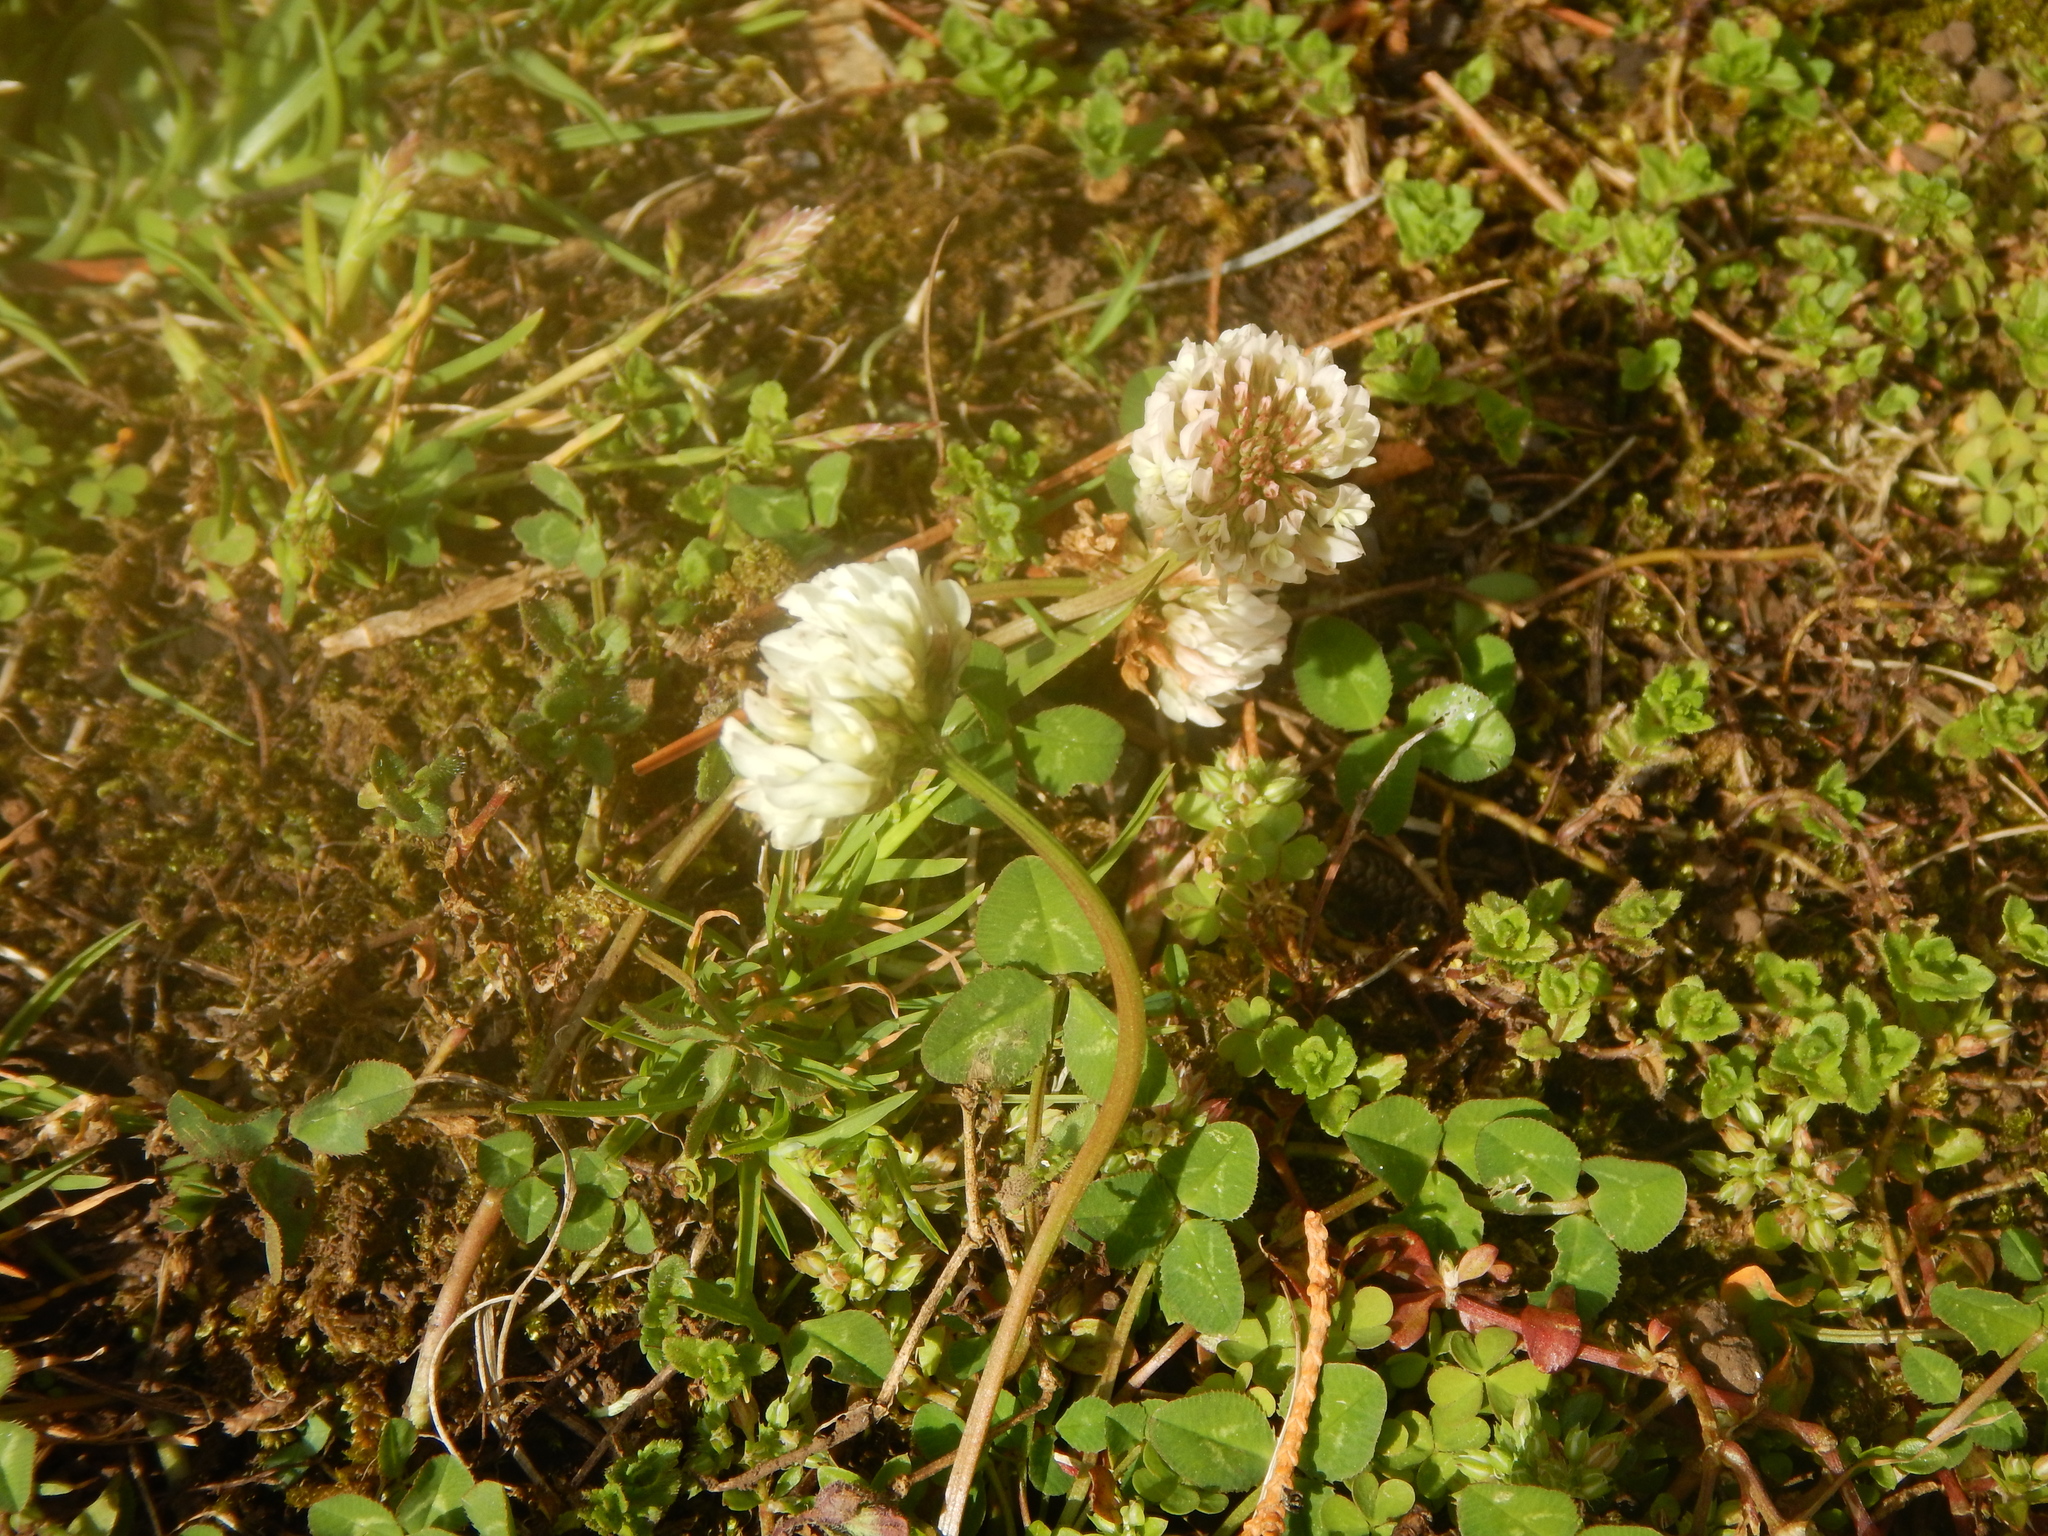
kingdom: Plantae
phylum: Tracheophyta
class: Magnoliopsida
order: Fabales
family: Fabaceae
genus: Trifolium
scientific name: Trifolium repens
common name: White clover
